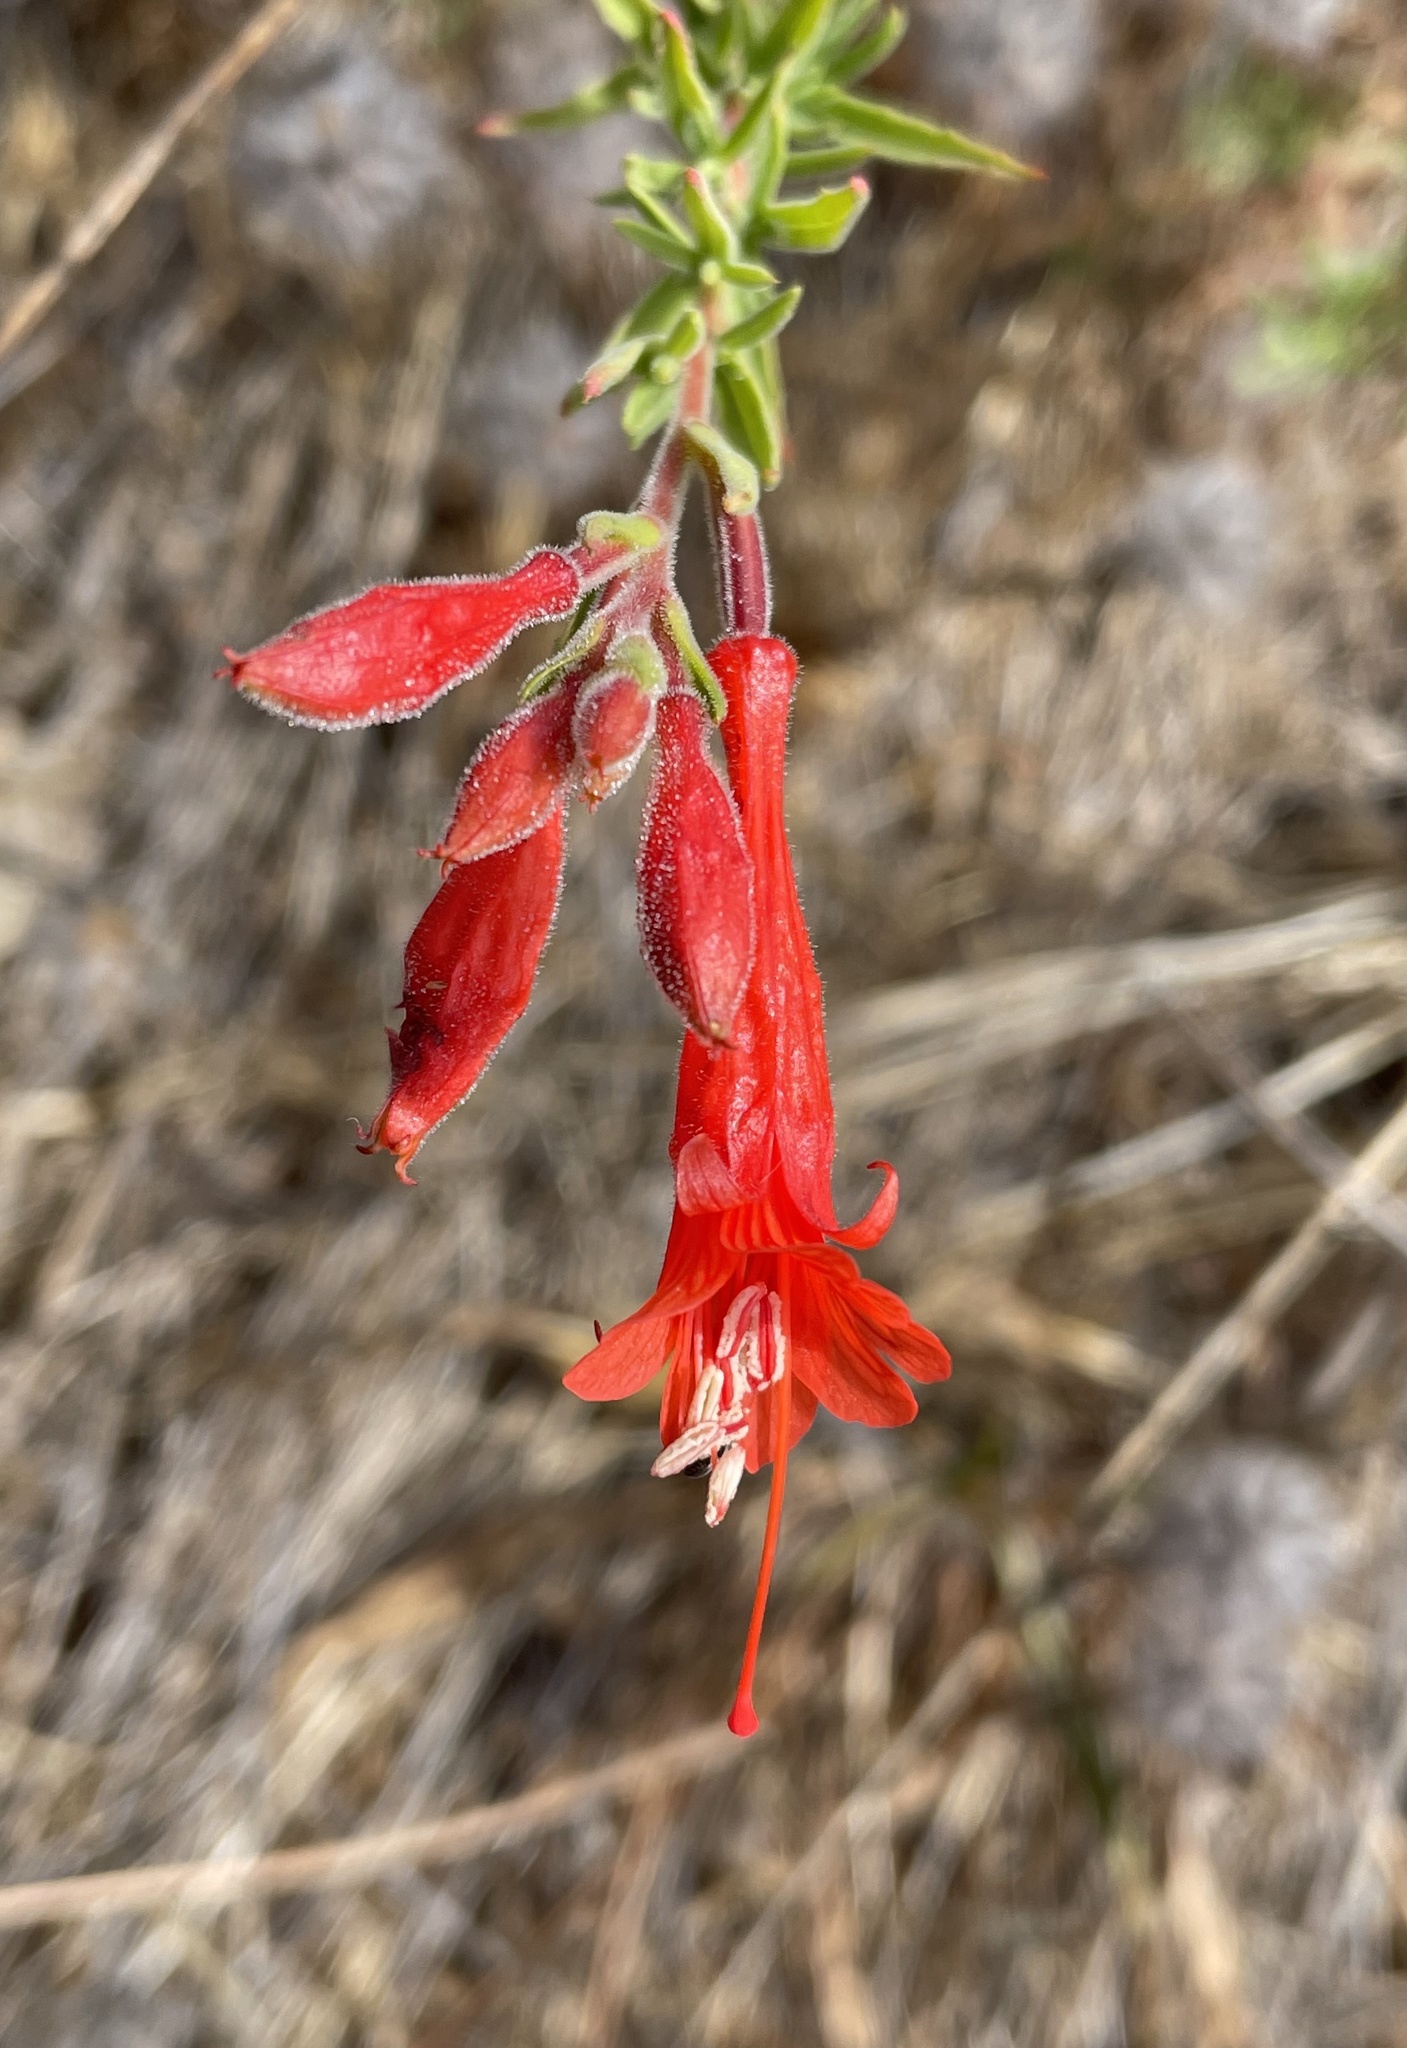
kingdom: Plantae
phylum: Tracheophyta
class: Magnoliopsida
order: Myrtales
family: Onagraceae
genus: Epilobium
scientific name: Epilobium canum
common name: California-fuchsia
